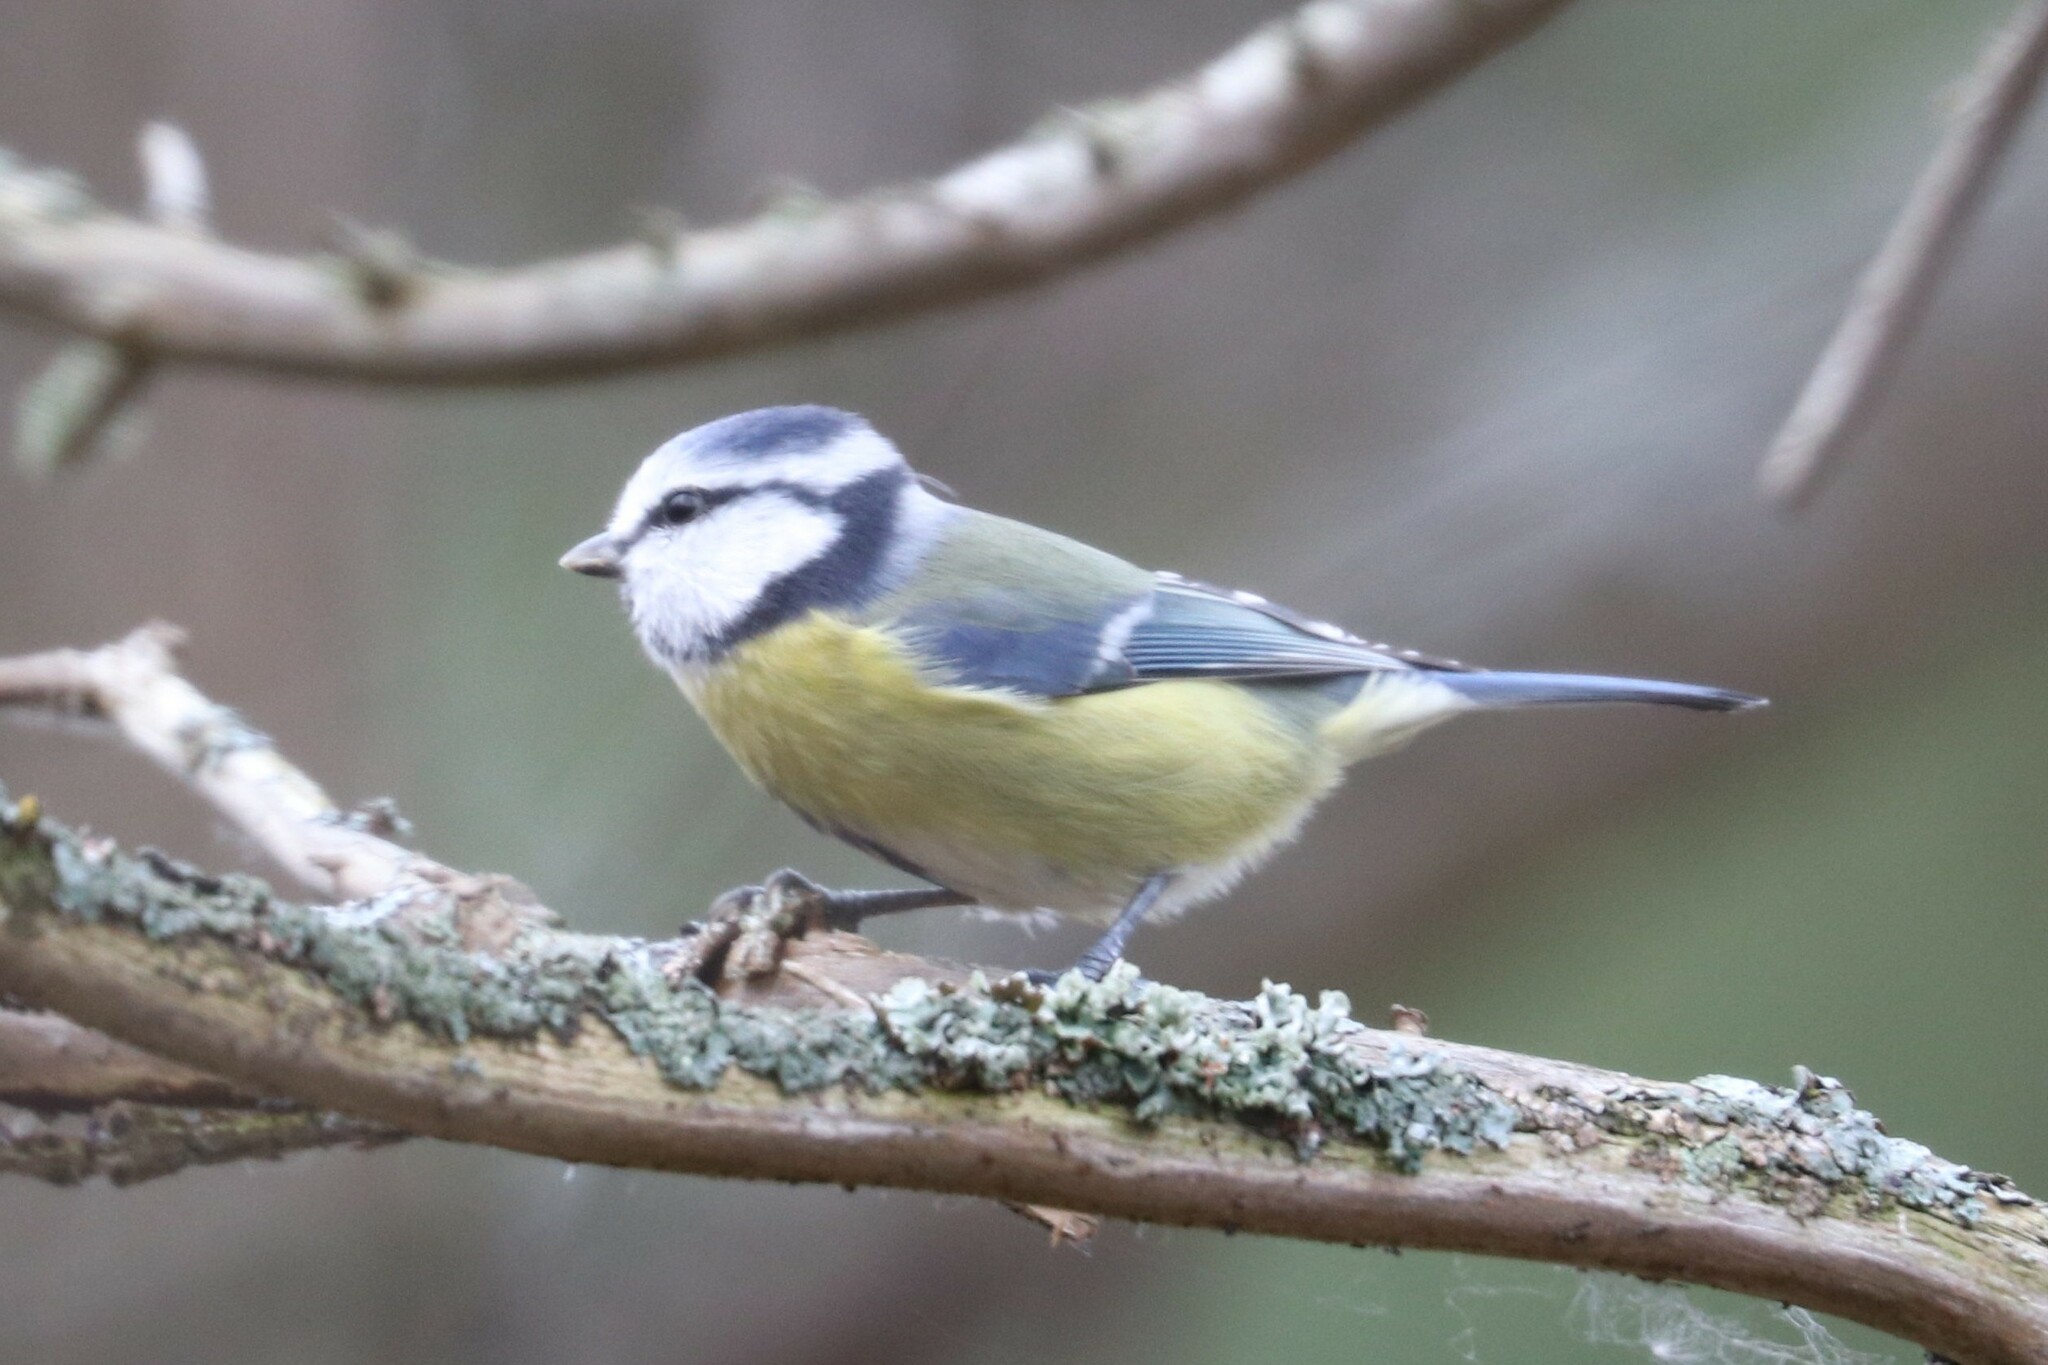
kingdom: Animalia
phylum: Chordata
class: Aves
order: Passeriformes
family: Paridae
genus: Cyanistes
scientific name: Cyanistes caeruleus
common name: Eurasian blue tit
